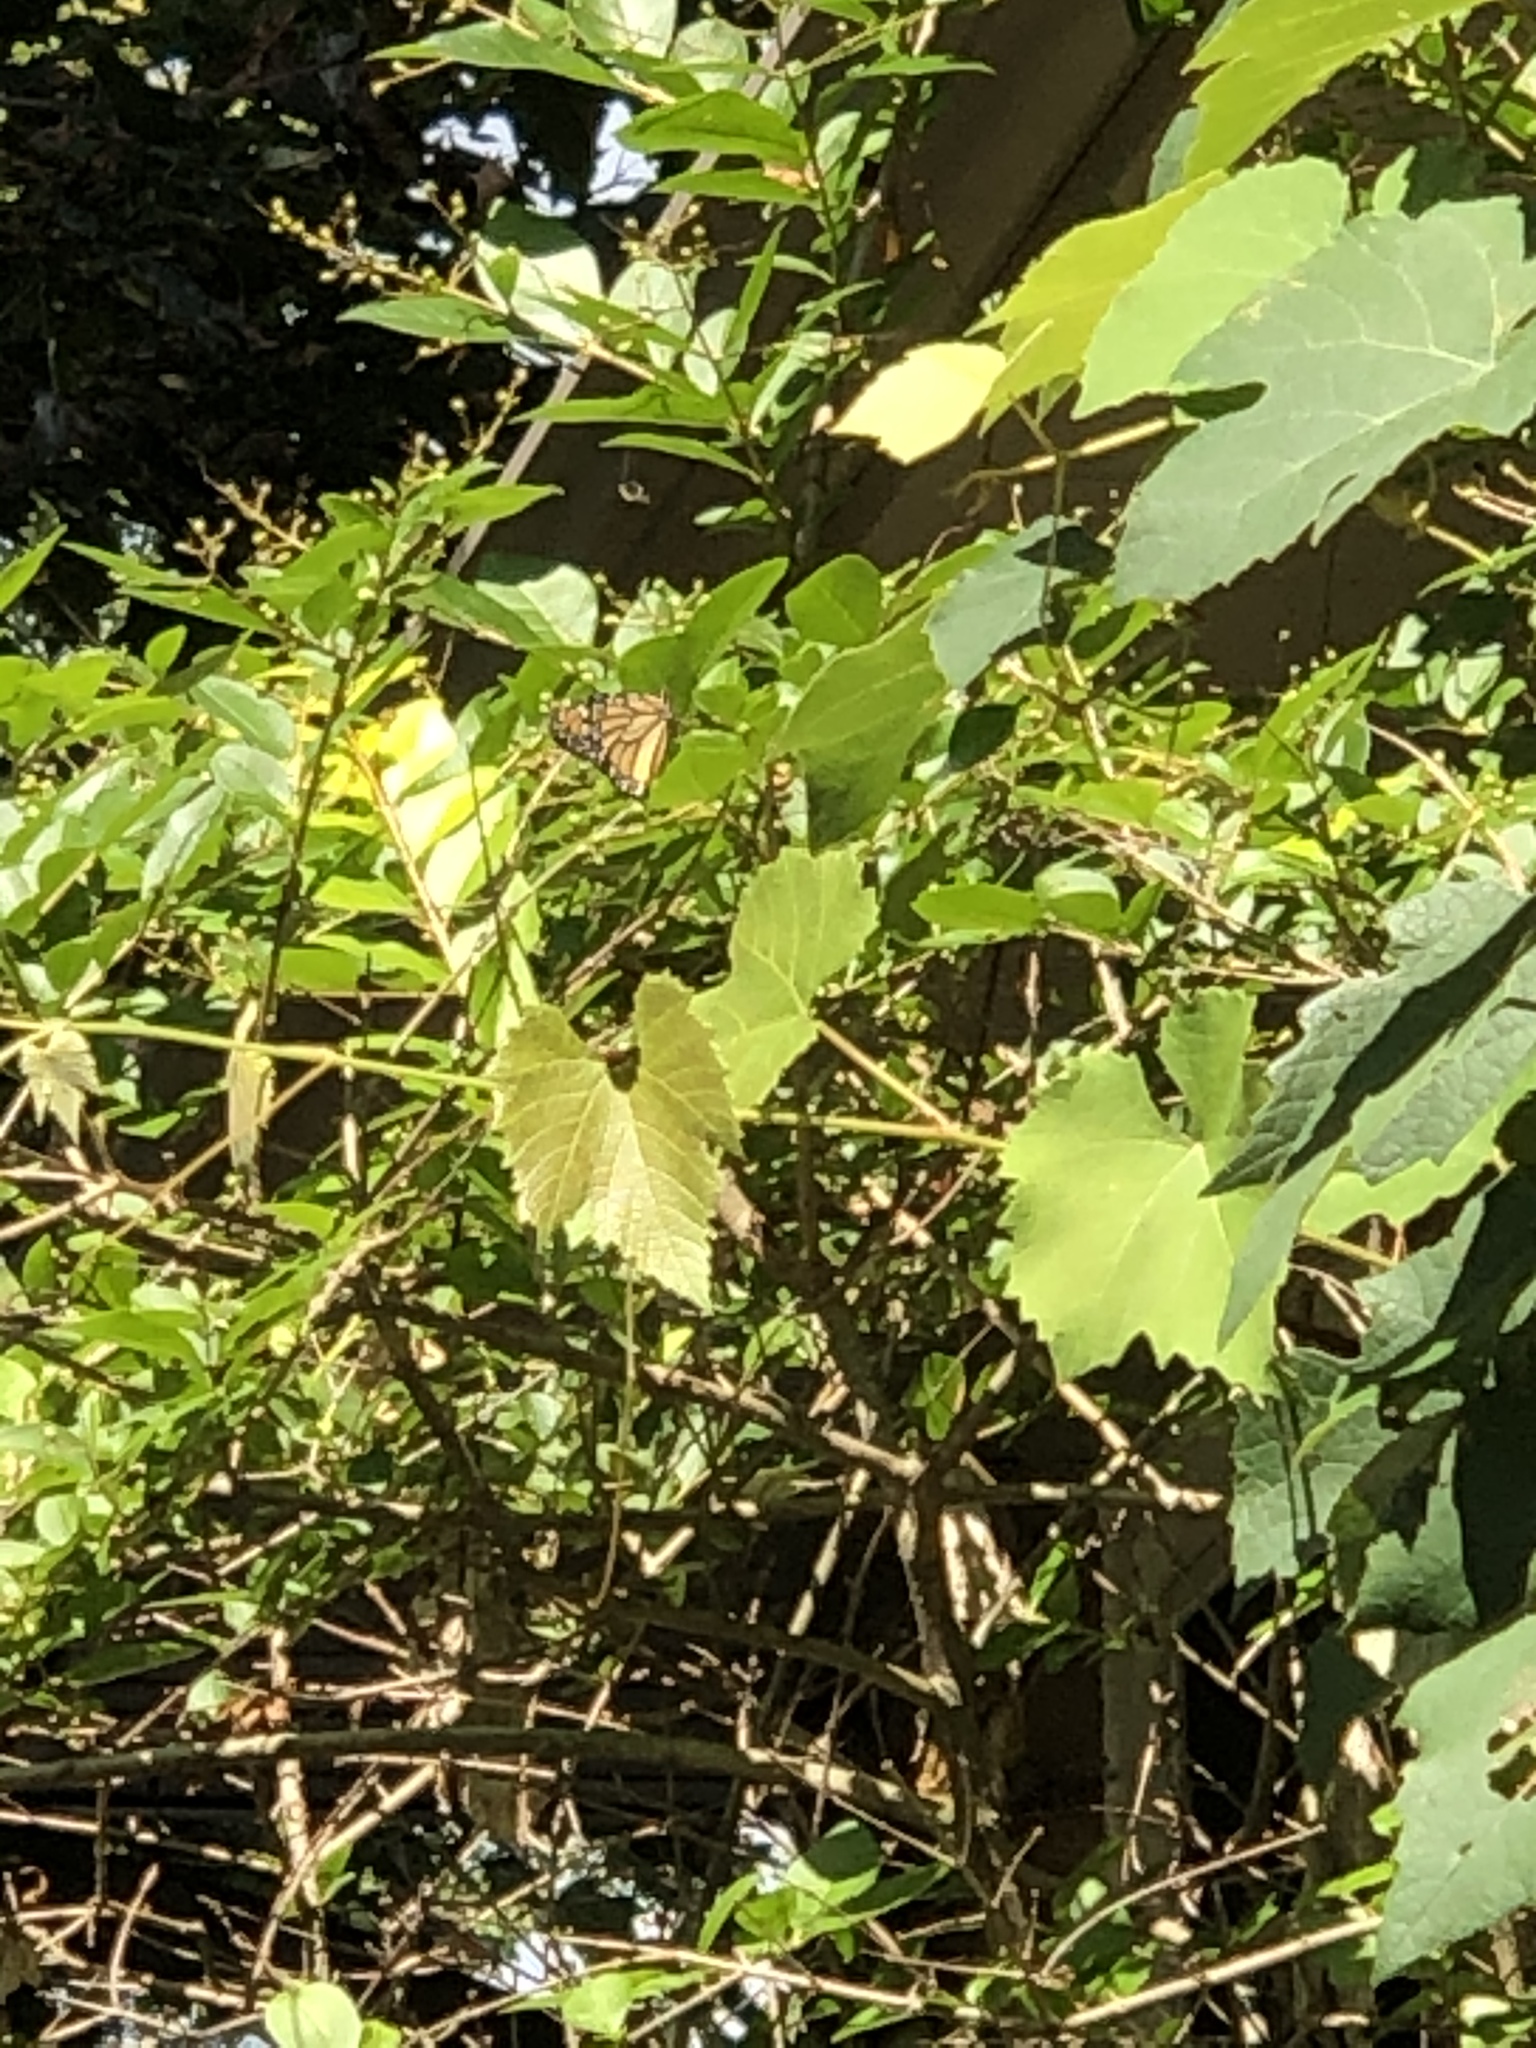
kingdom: Animalia
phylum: Arthropoda
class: Insecta
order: Lepidoptera
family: Nymphalidae
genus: Danaus
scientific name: Danaus plexippus
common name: Monarch
